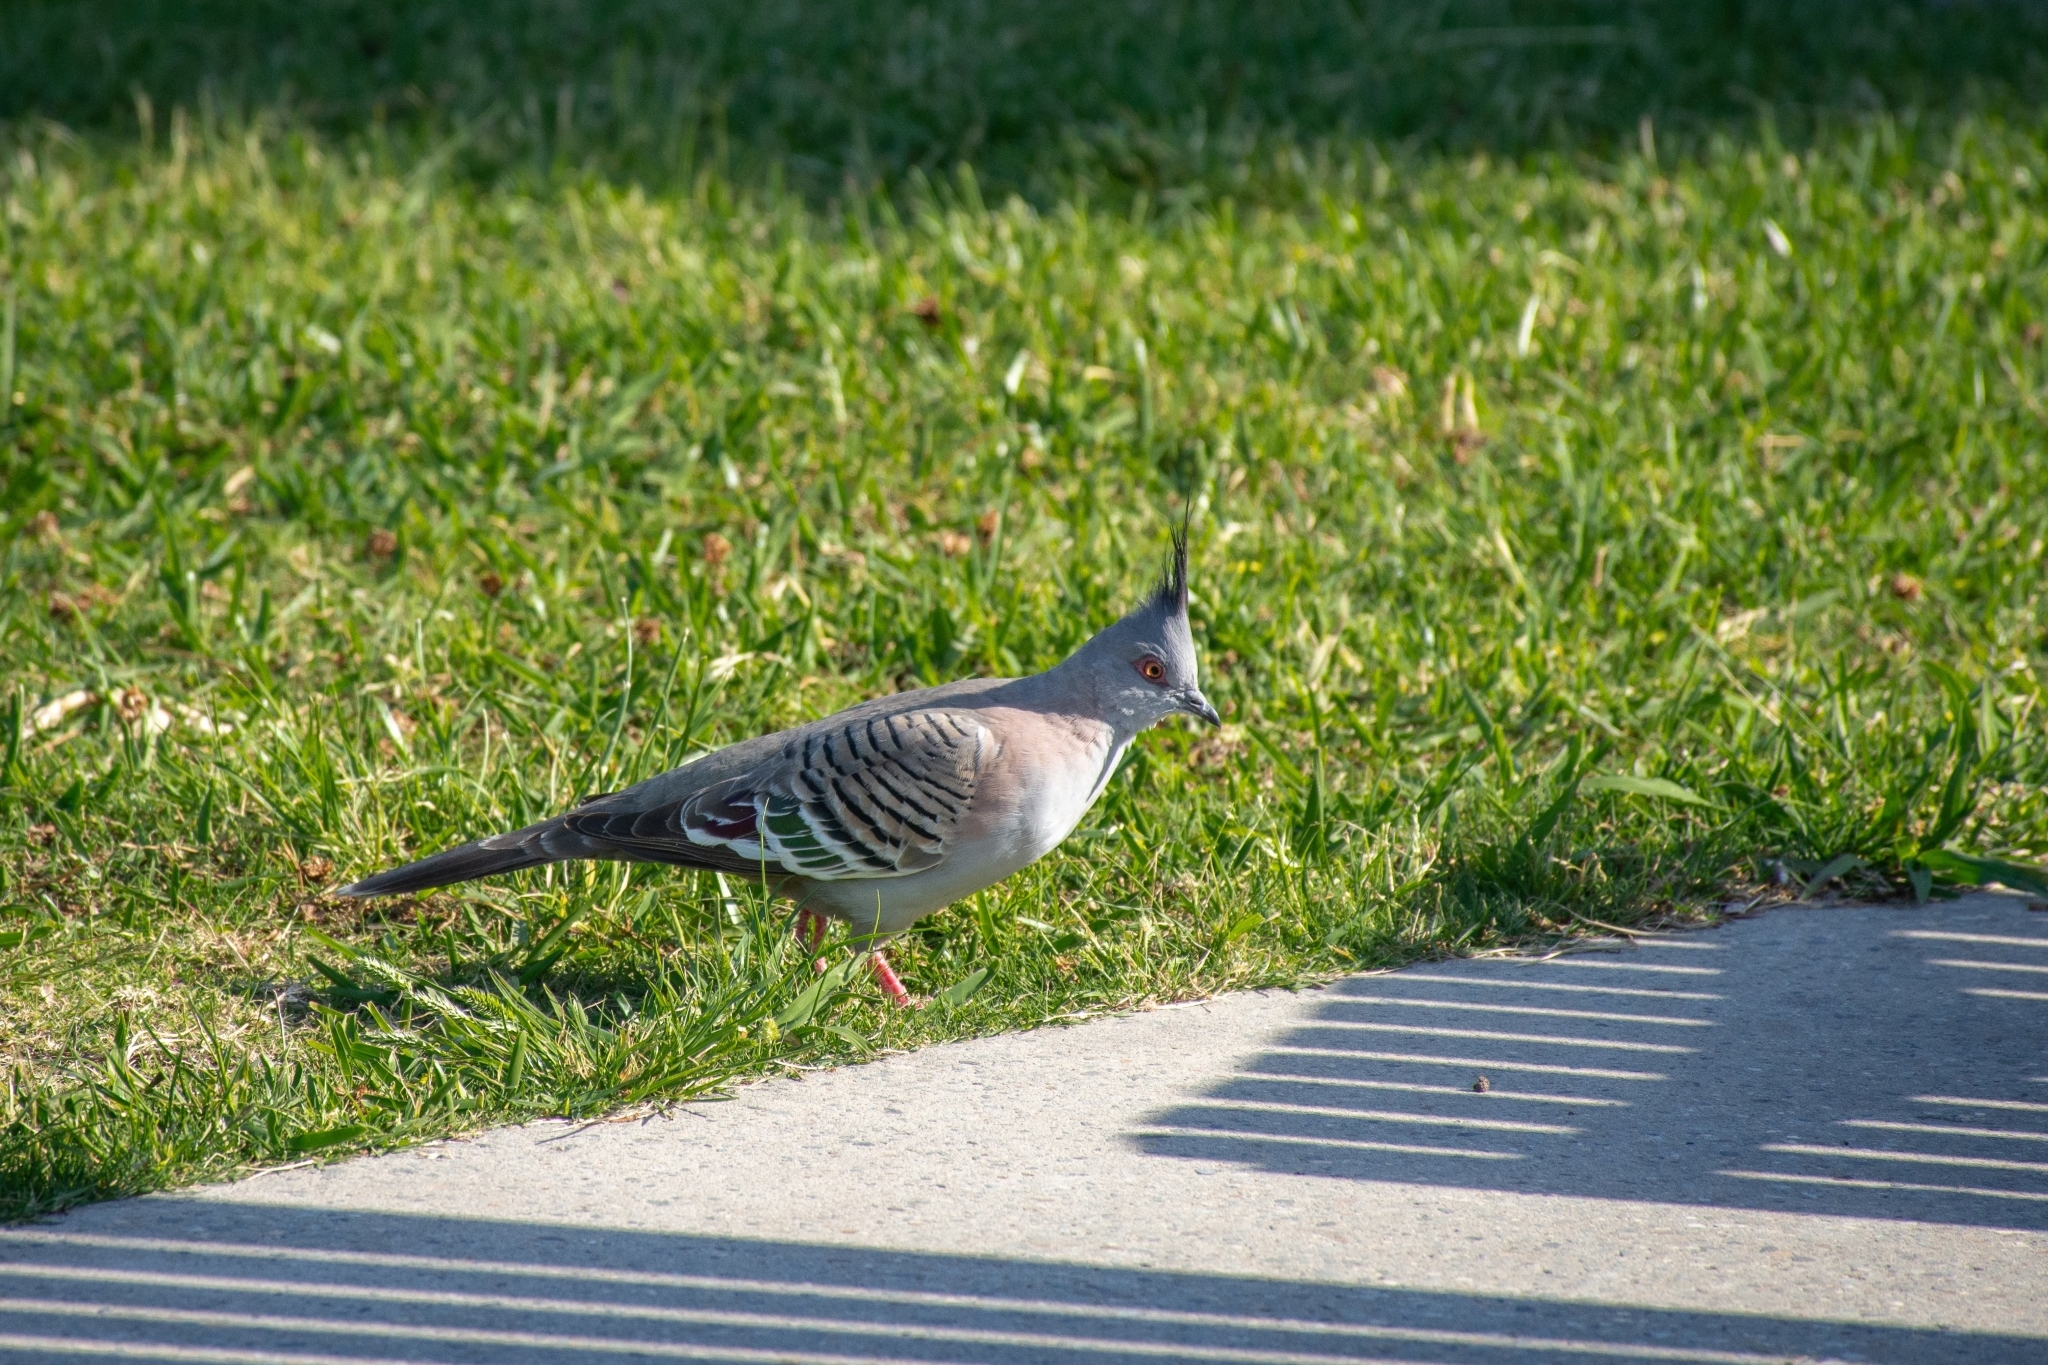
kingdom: Animalia
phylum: Chordata
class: Aves
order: Columbiformes
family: Columbidae
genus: Ocyphaps
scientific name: Ocyphaps lophotes
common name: Crested pigeon
